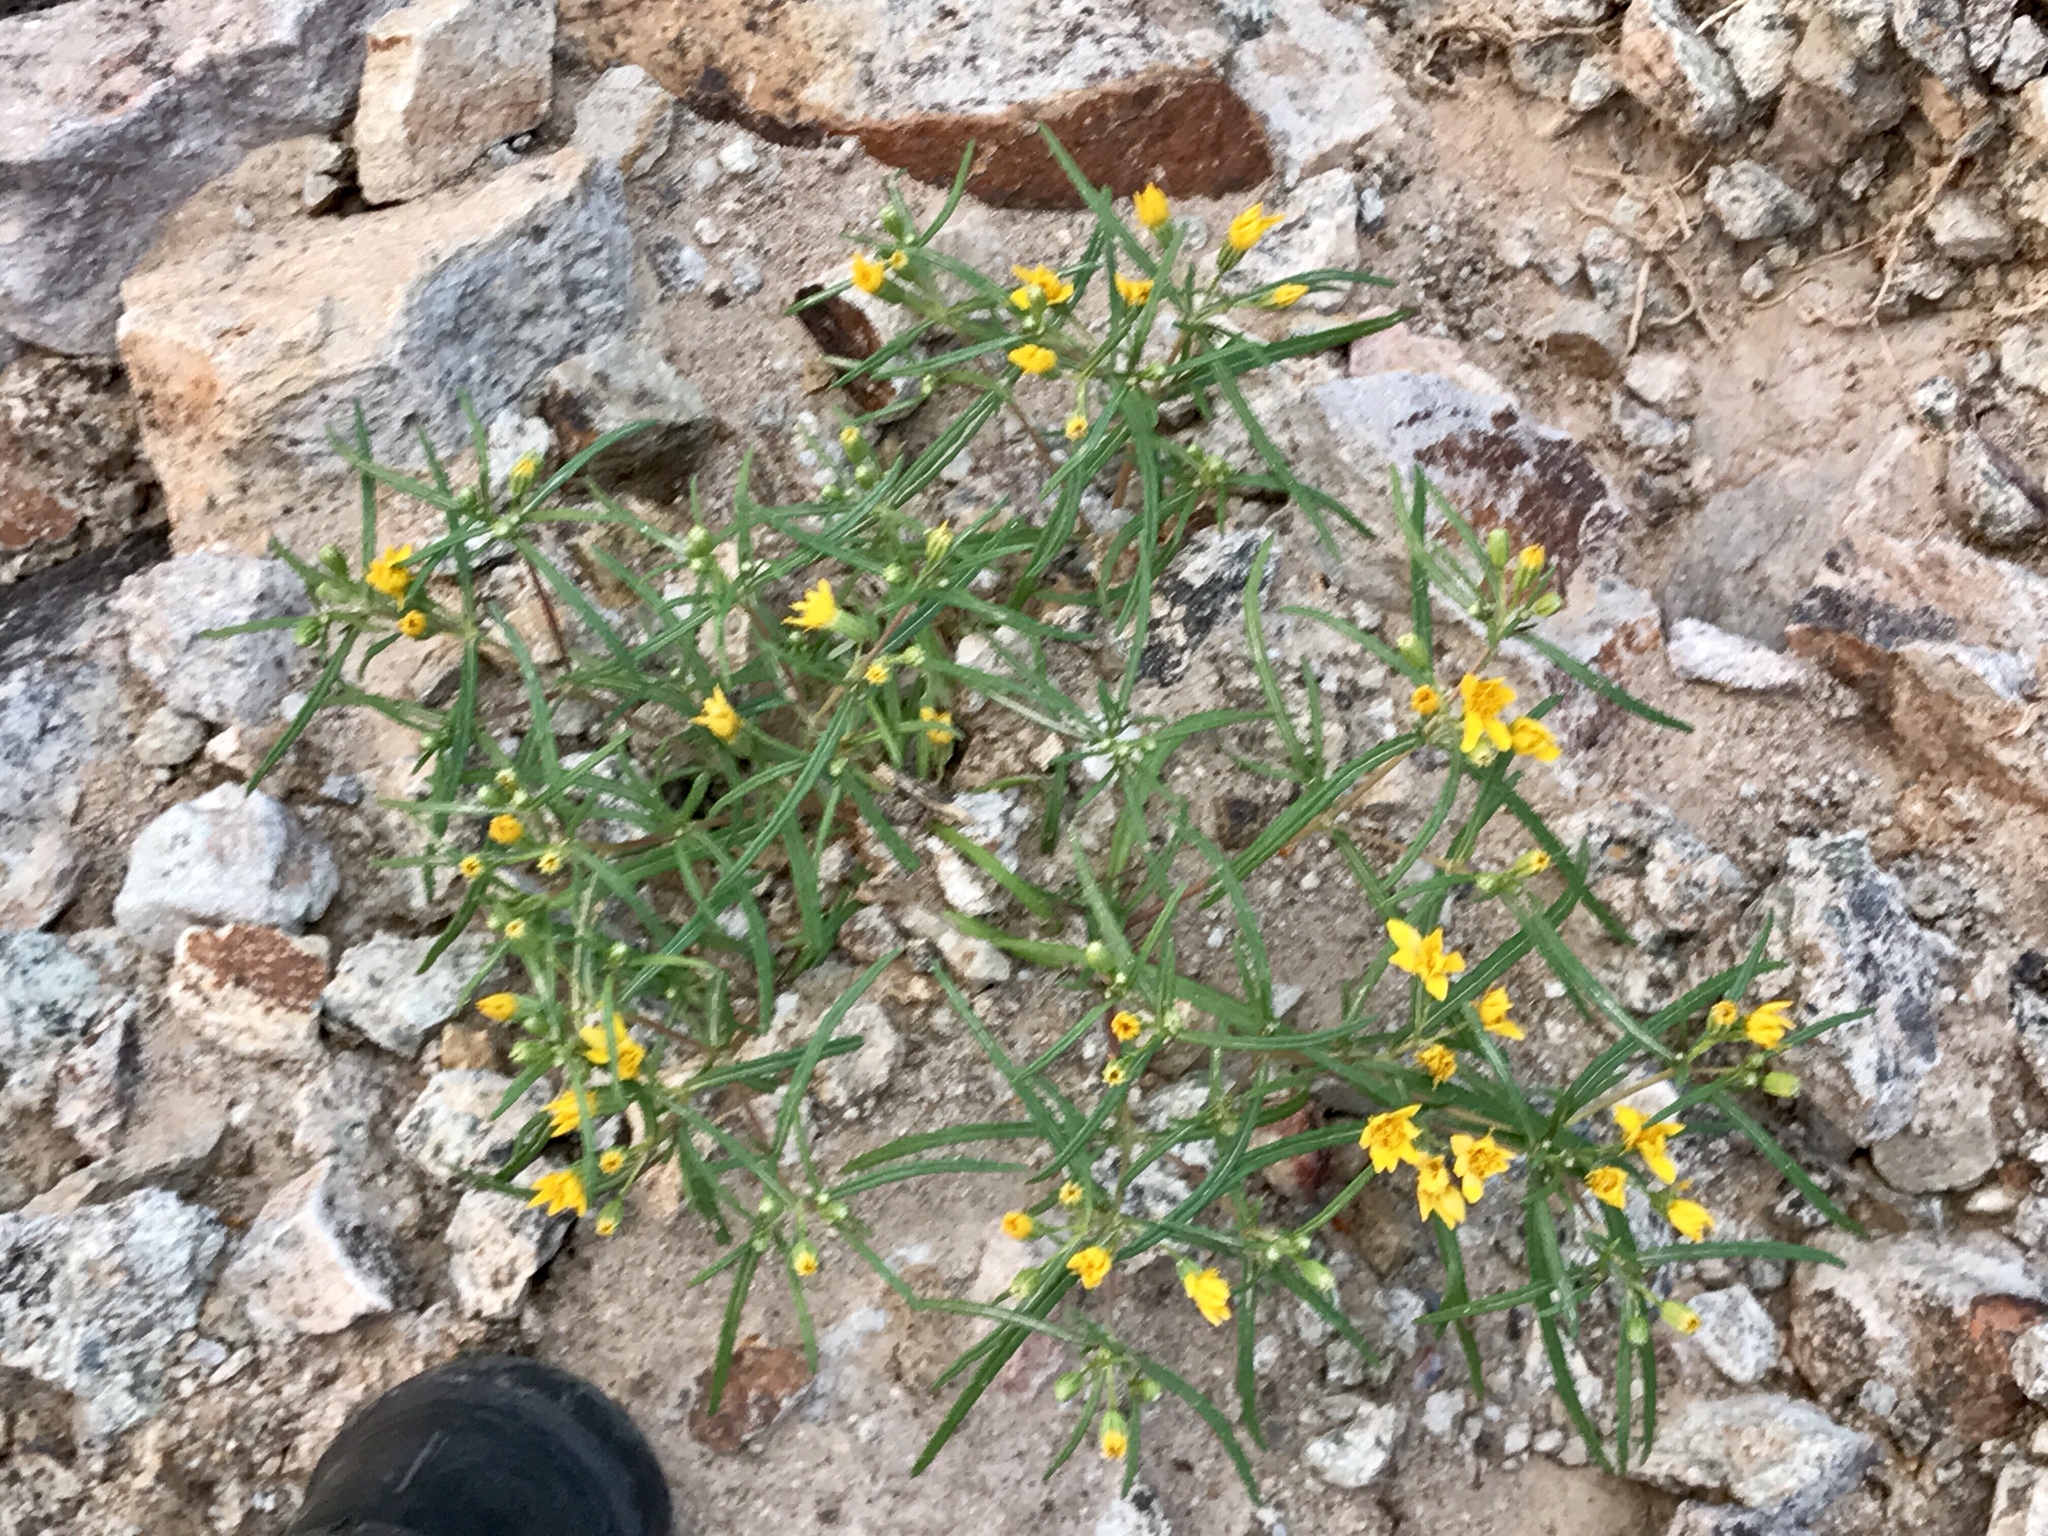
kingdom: Plantae
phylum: Tracheophyta
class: Magnoliopsida
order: Asterales
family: Asteraceae
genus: Pectis
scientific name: Pectis papposa
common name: Many-bristle chinchweed
